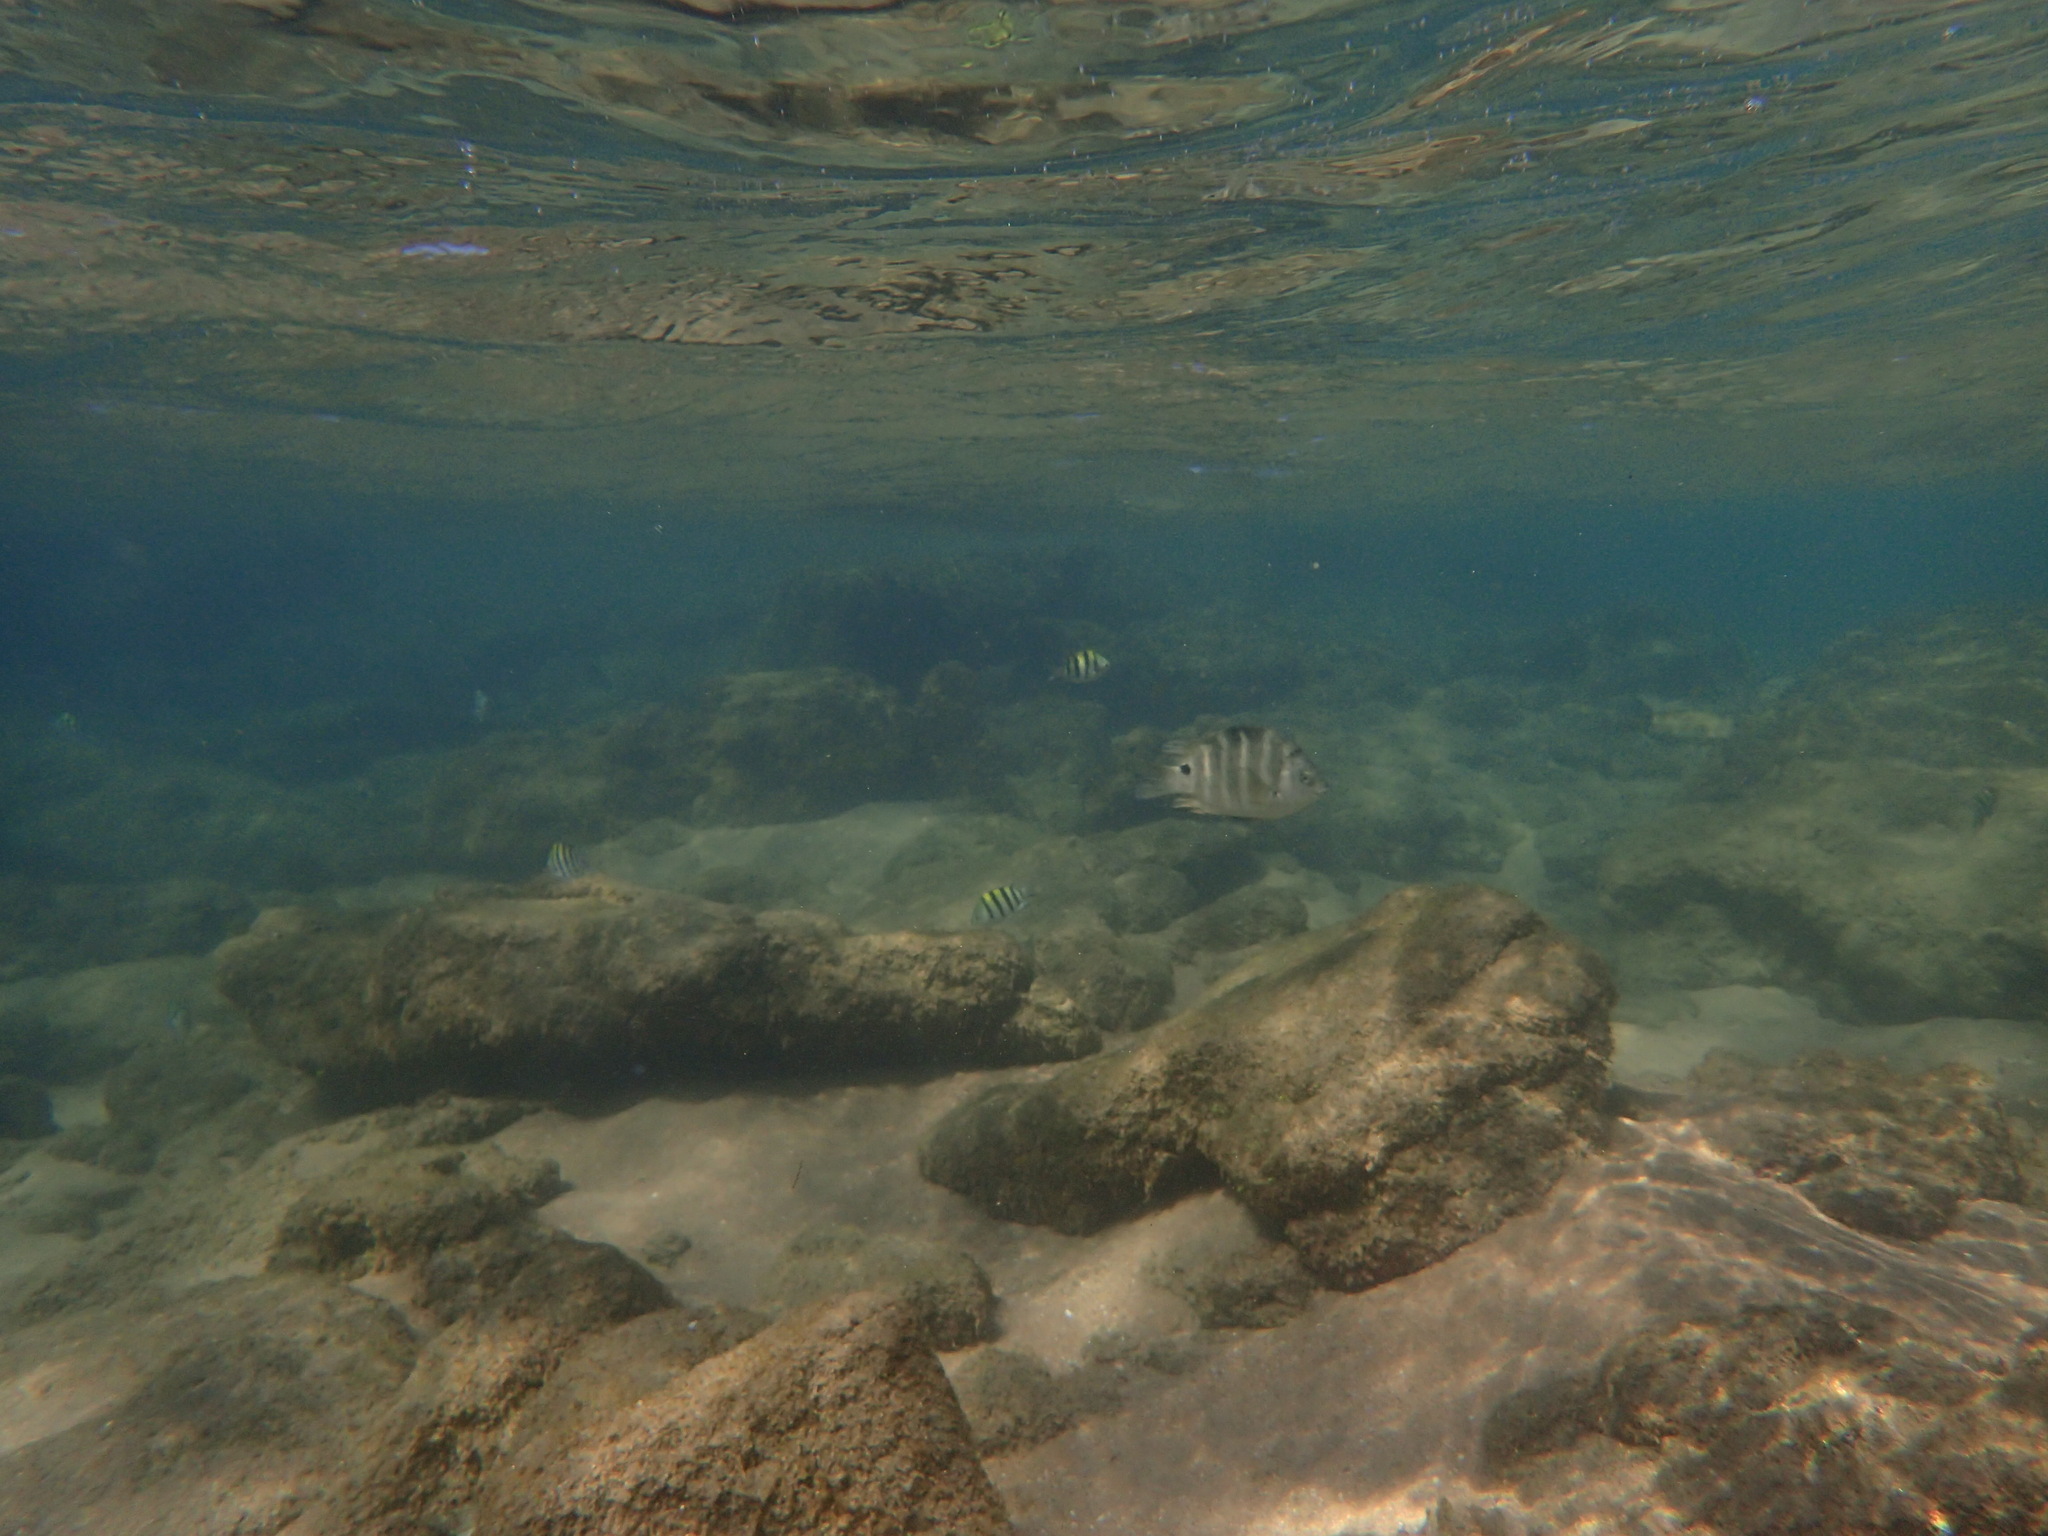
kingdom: Animalia
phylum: Chordata
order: Perciformes
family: Pomacentridae
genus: Abudefduf
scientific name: Abudefduf sordidus
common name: Blackspot sergeant
